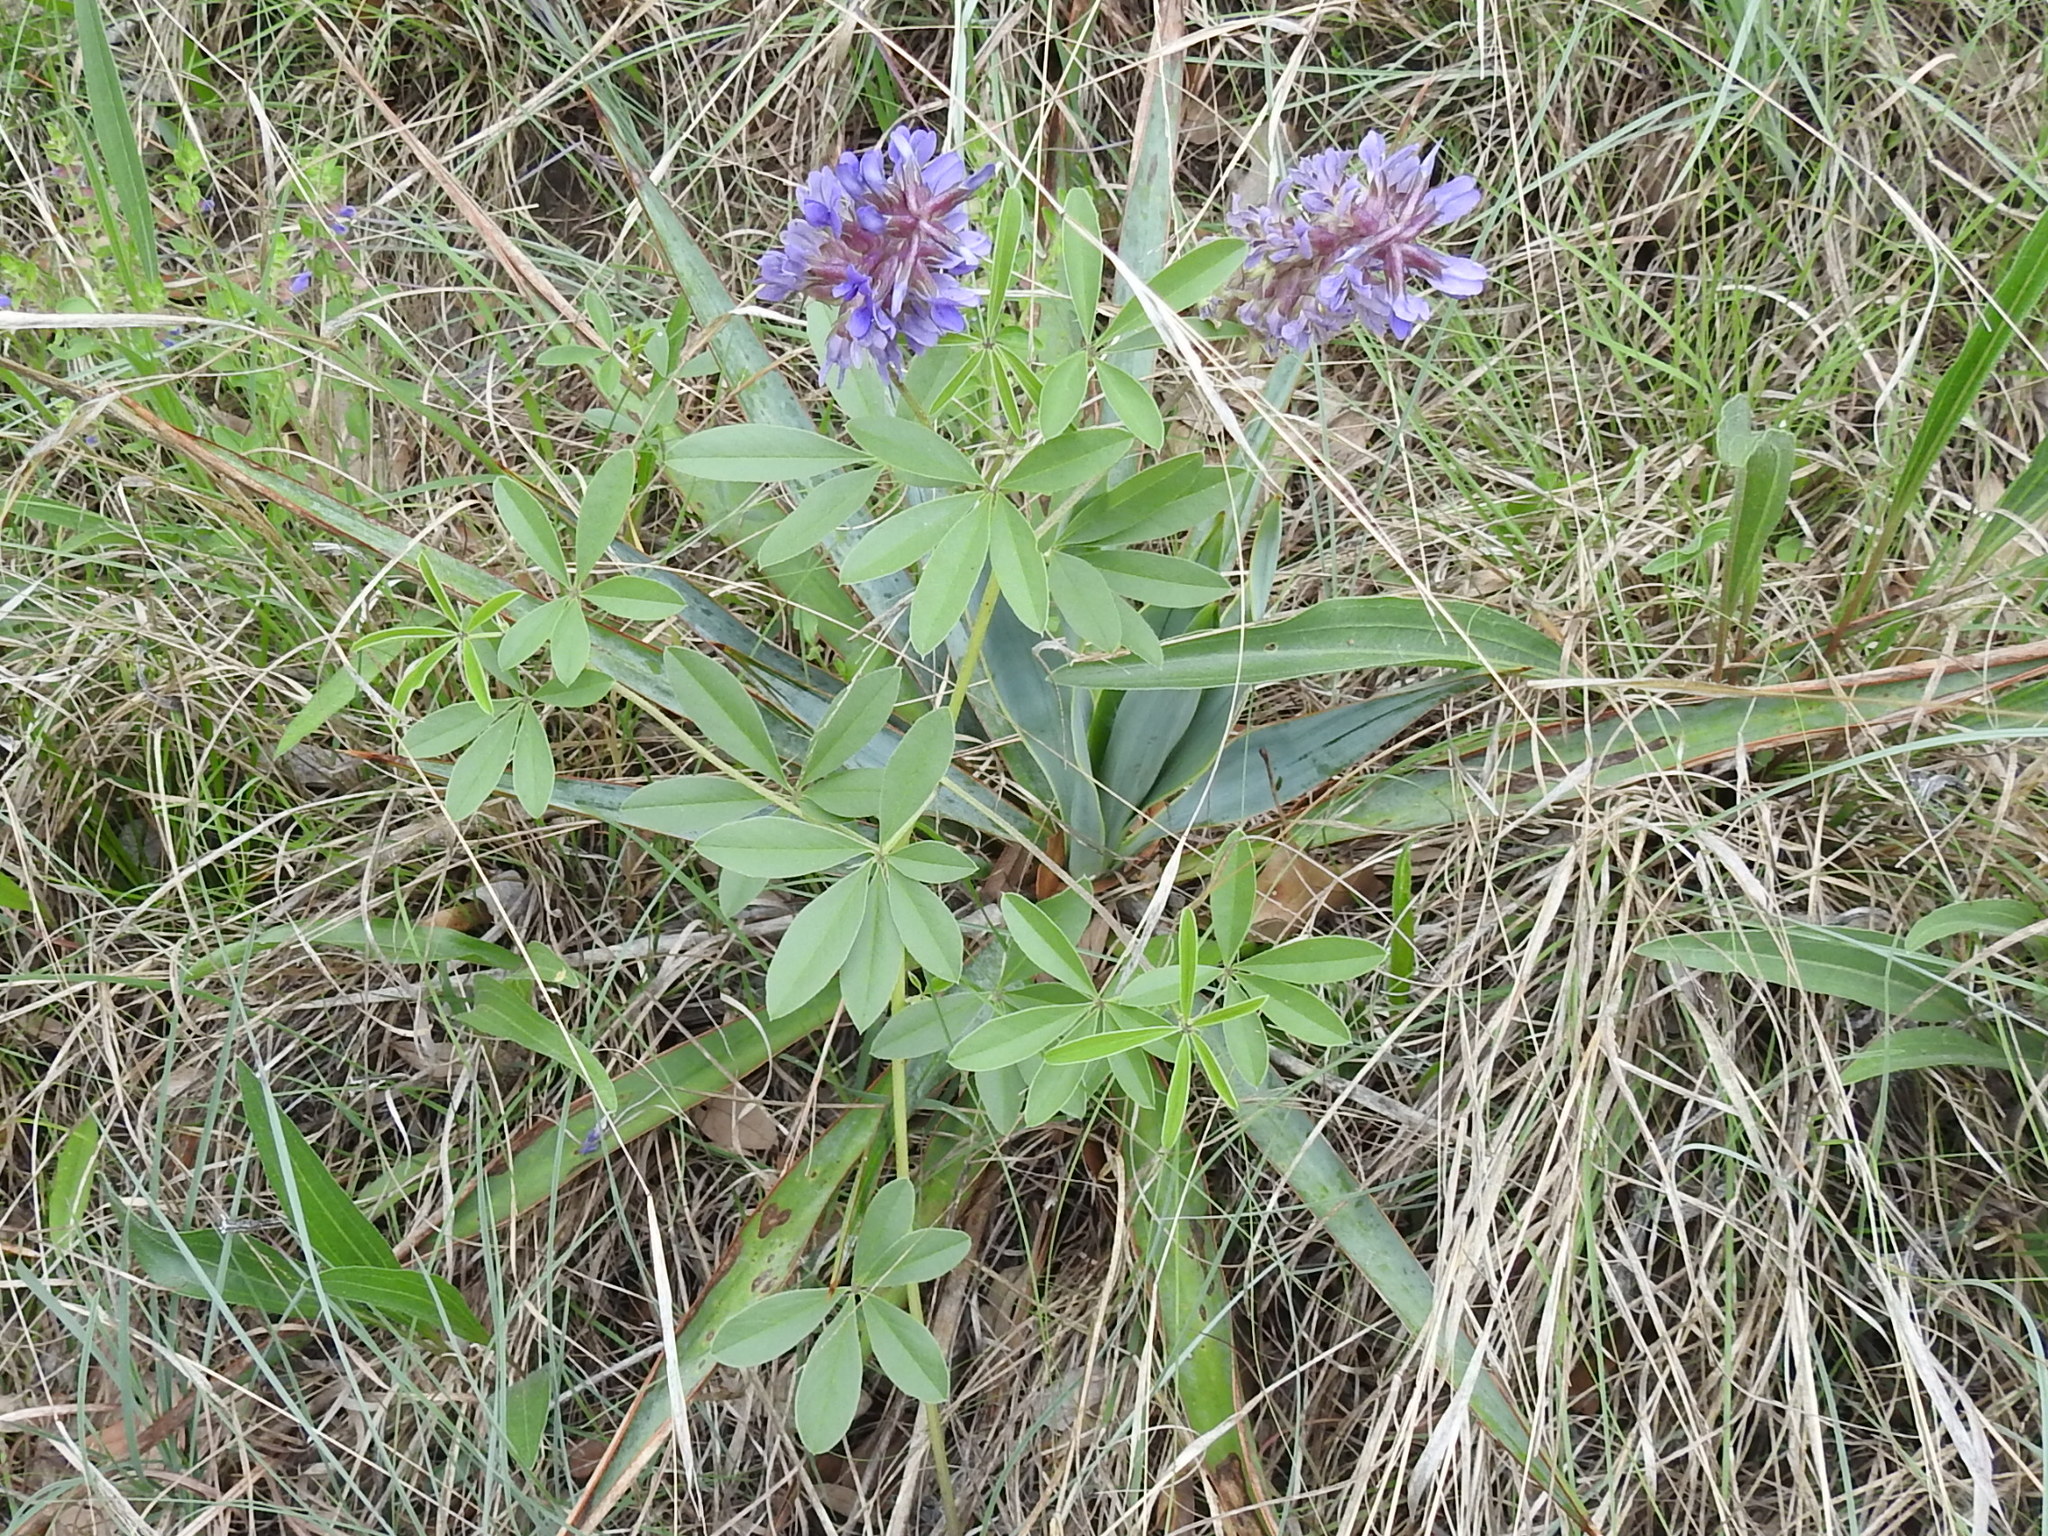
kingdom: Plantae
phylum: Tracheophyta
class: Magnoliopsida
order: Fabales
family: Fabaceae
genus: Pediomelum
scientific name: Pediomelum cuspidatum
